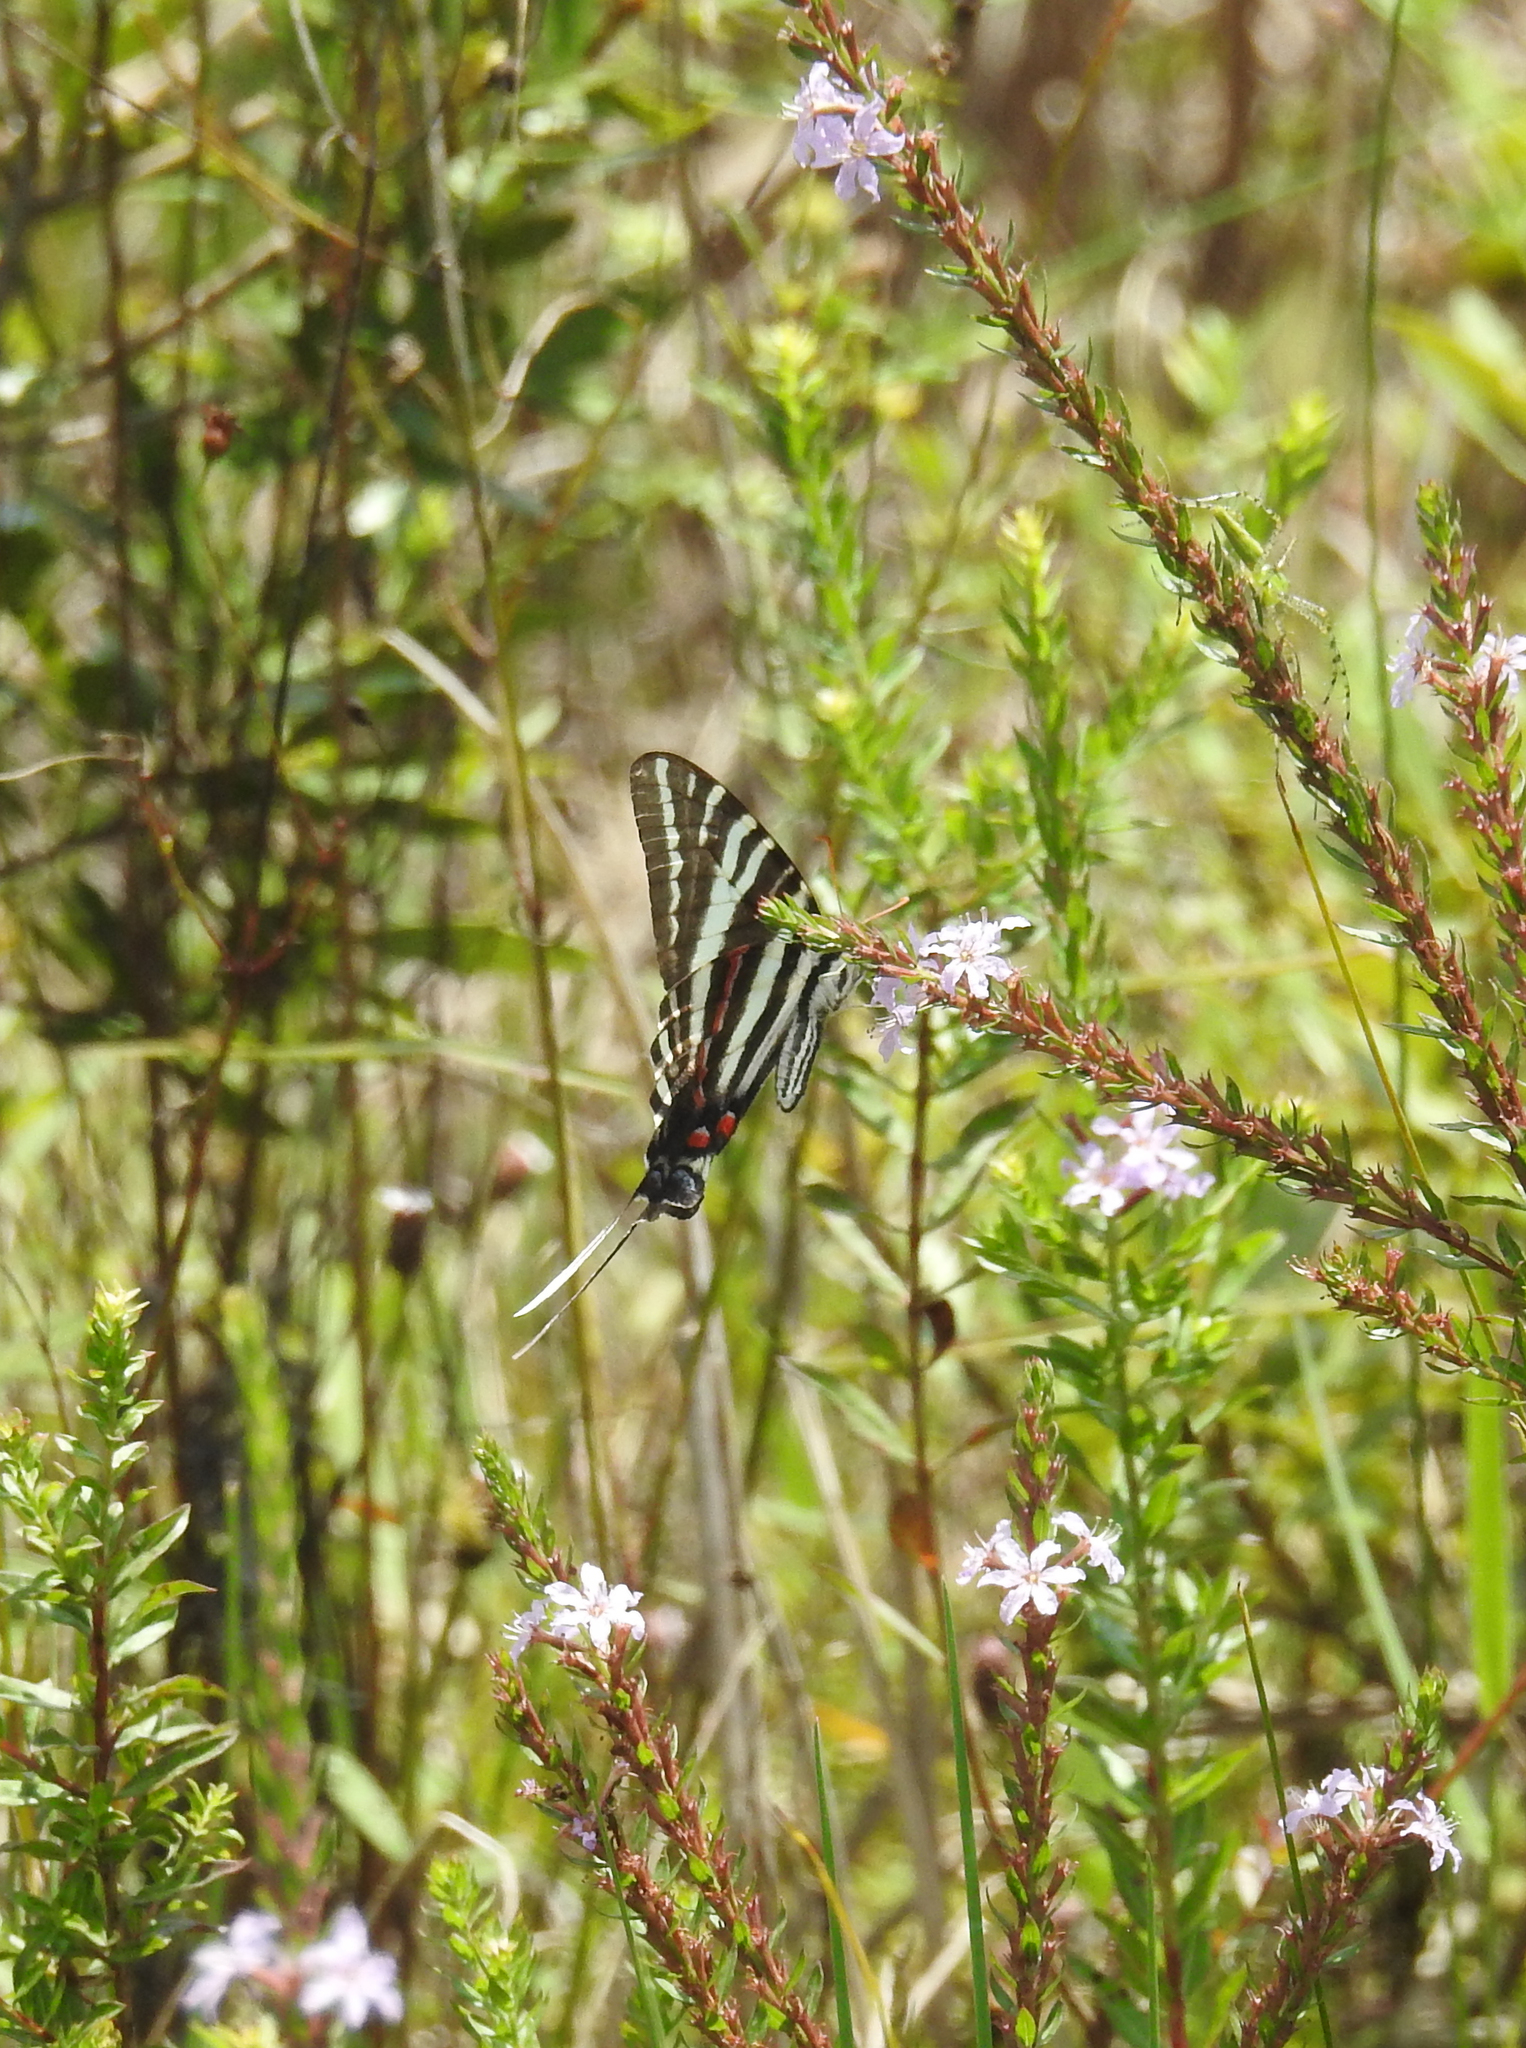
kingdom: Animalia
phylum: Arthropoda
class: Insecta
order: Lepidoptera
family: Papilionidae
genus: Protographium
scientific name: Protographium marcellus
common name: Zebra swallowtail
